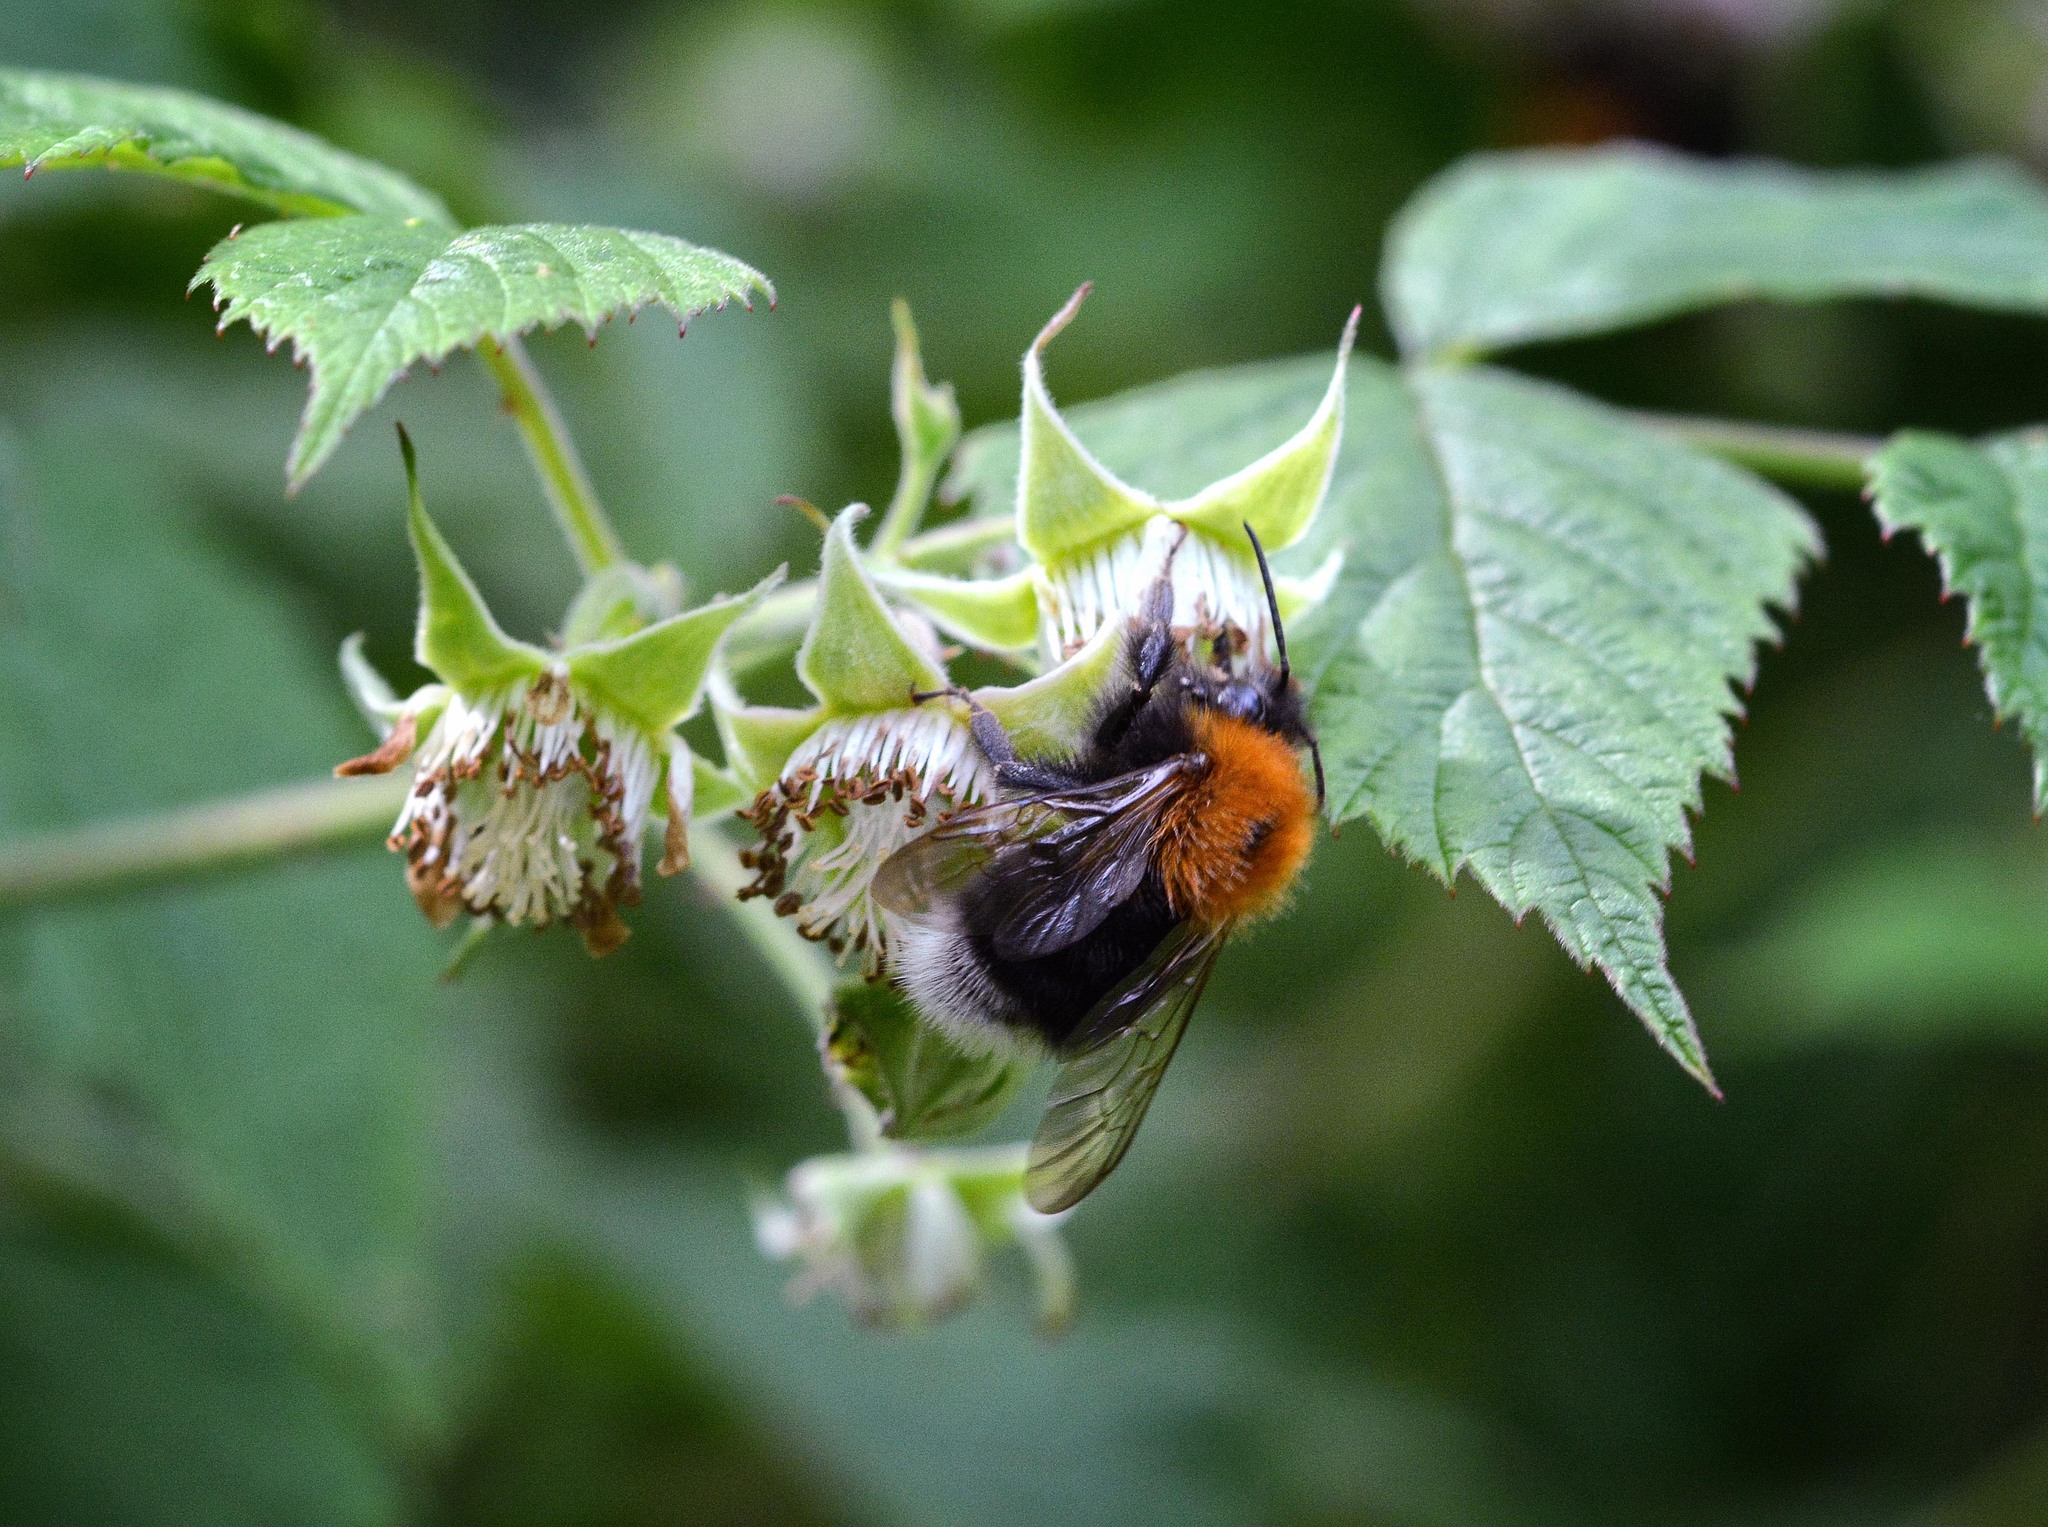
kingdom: Animalia
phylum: Arthropoda
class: Insecta
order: Hymenoptera
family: Apidae
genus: Bombus
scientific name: Bombus hypnorum
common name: New garden bumblebee
